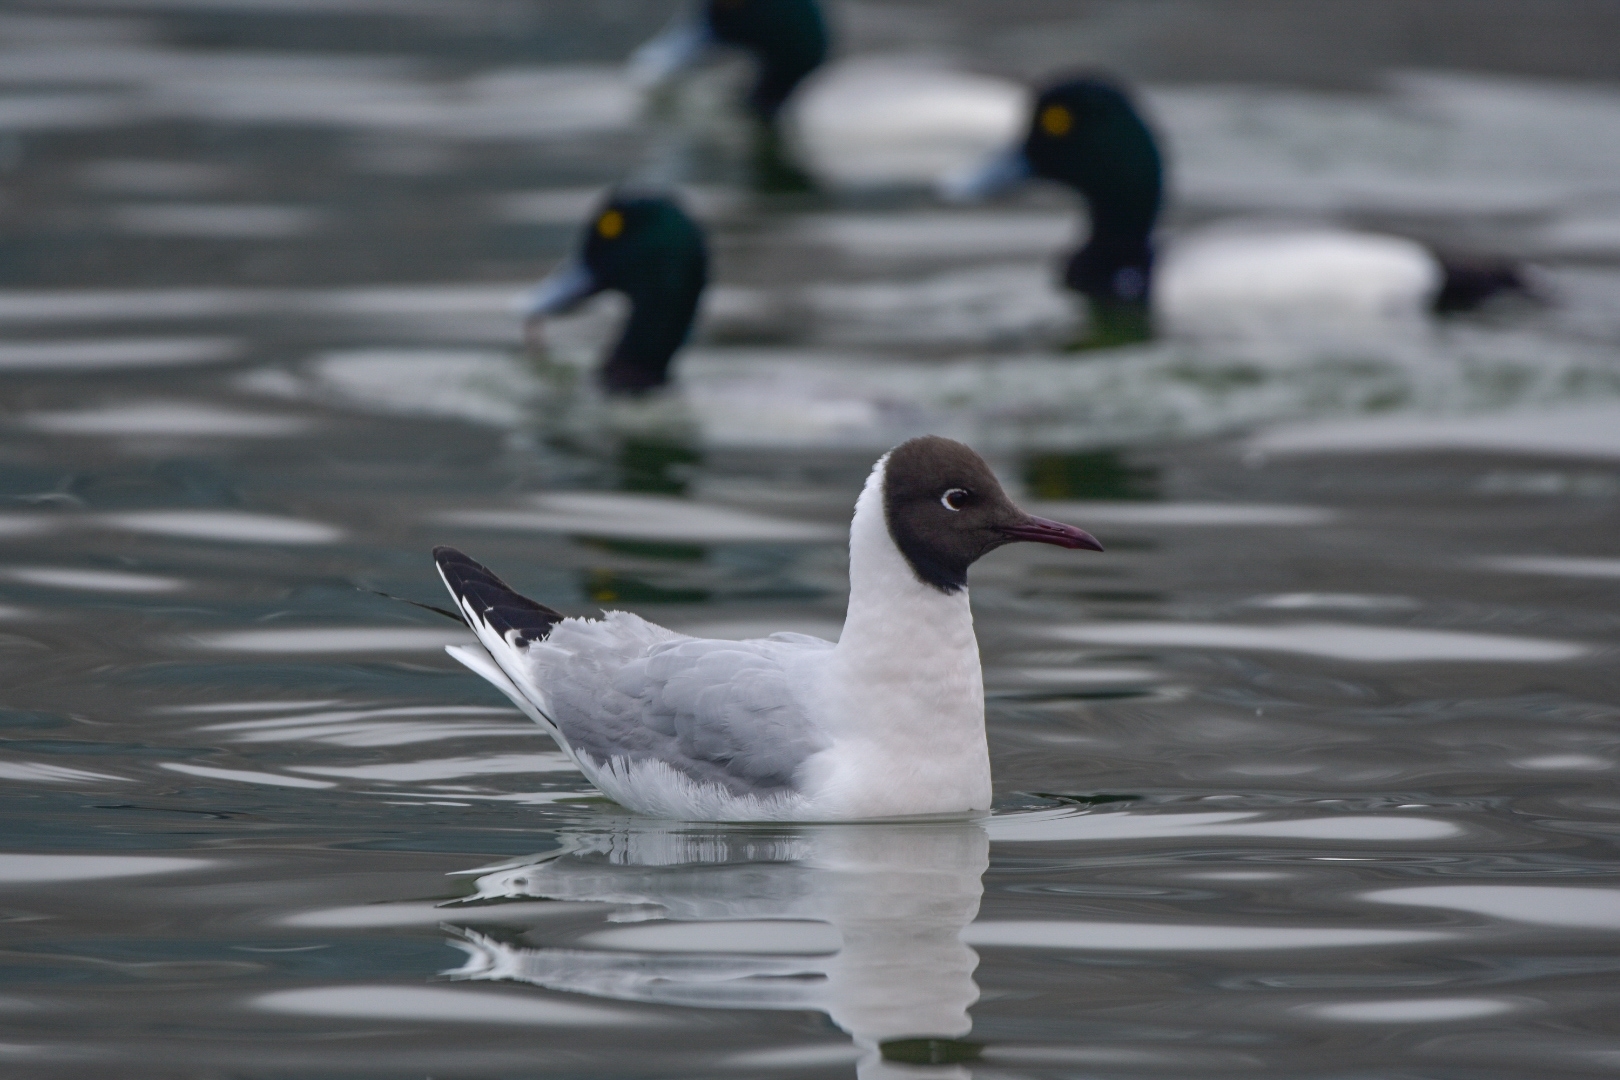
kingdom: Animalia
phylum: Chordata
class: Aves
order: Charadriiformes
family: Laridae
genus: Chroicocephalus
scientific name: Chroicocephalus ridibundus
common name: Black-headed gull
